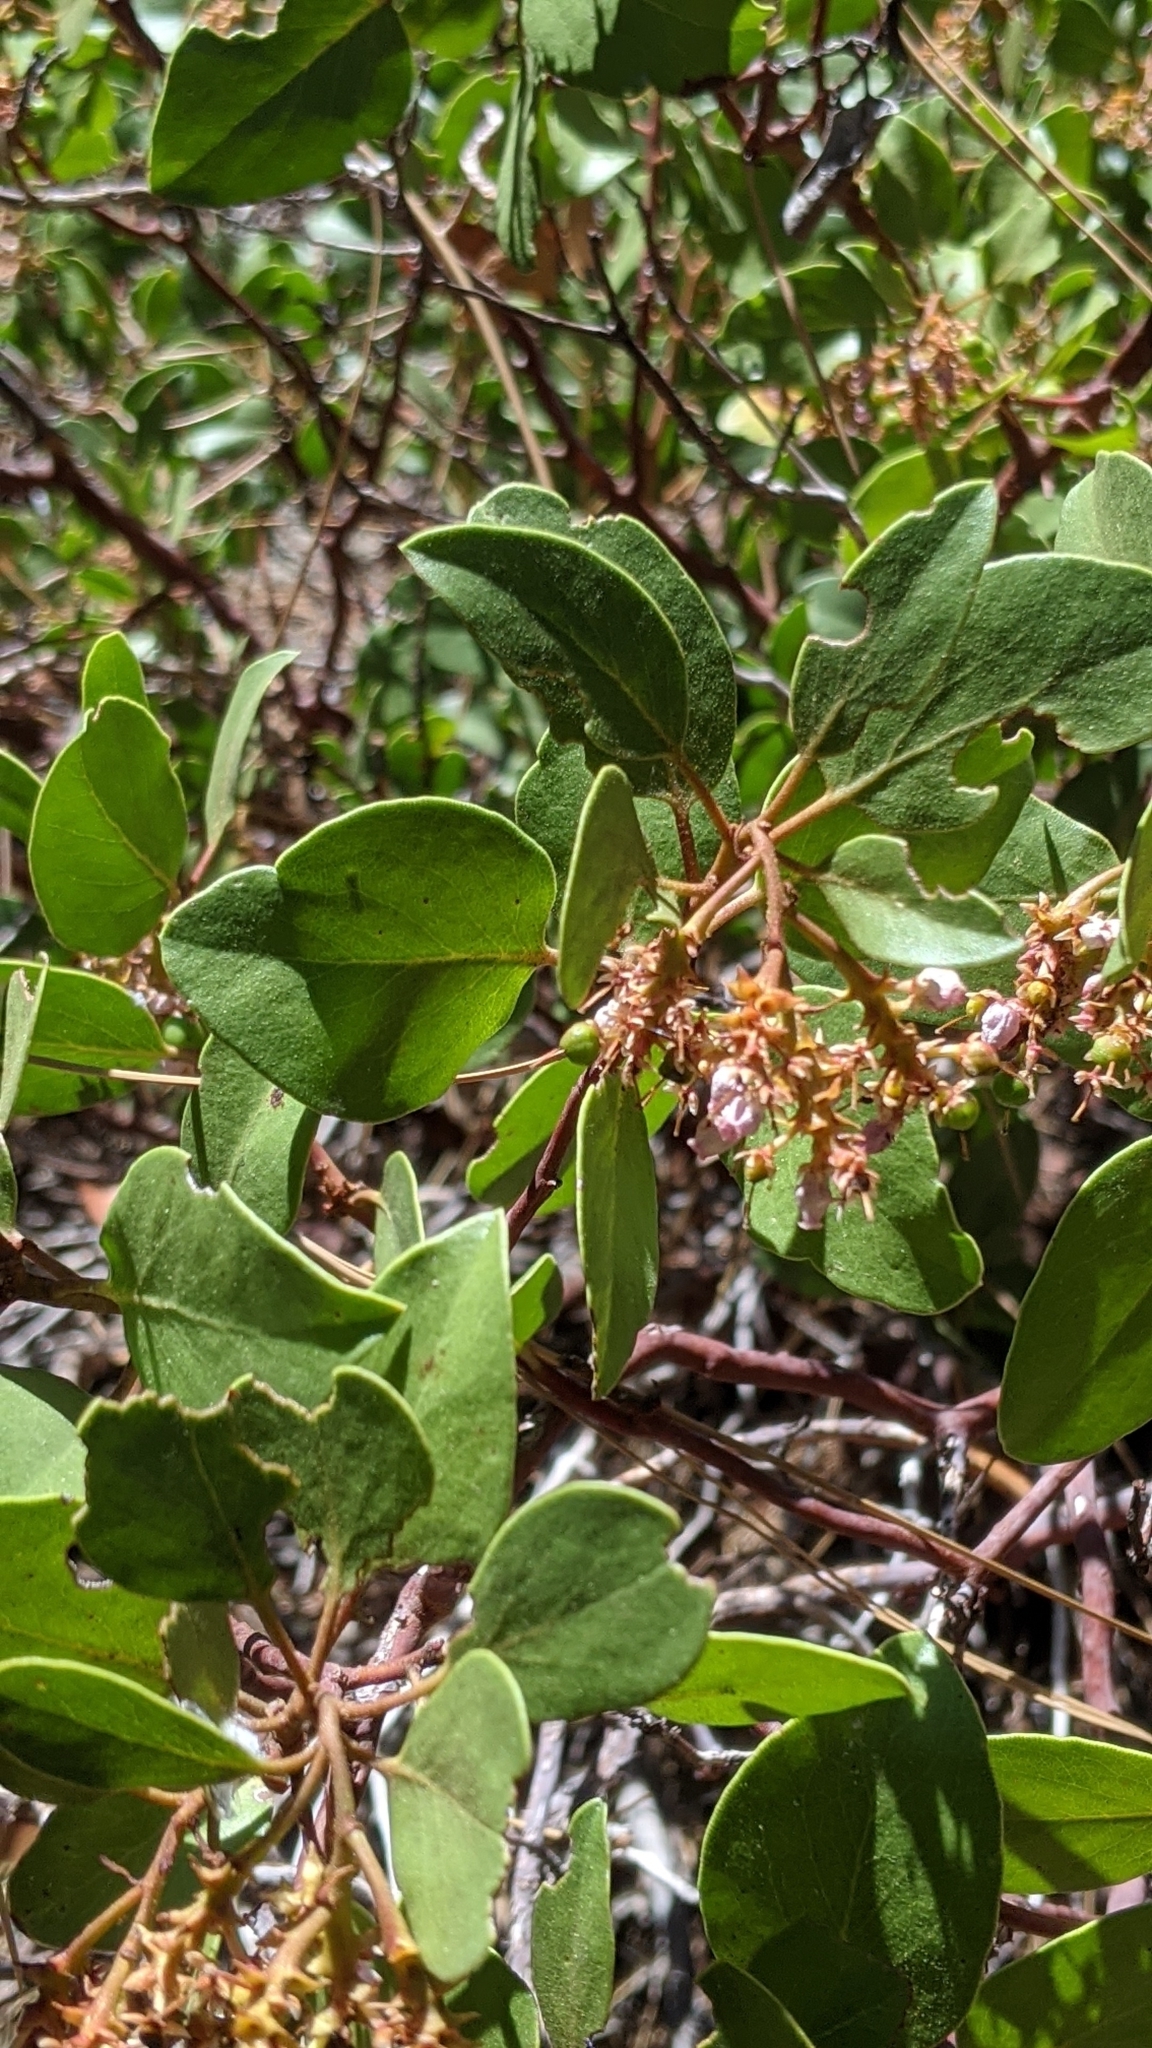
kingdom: Plantae
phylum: Tracheophyta
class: Magnoliopsida
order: Ericales
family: Ericaceae
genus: Arctostaphylos
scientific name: Arctostaphylos patula
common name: Green-leaf manzanita
